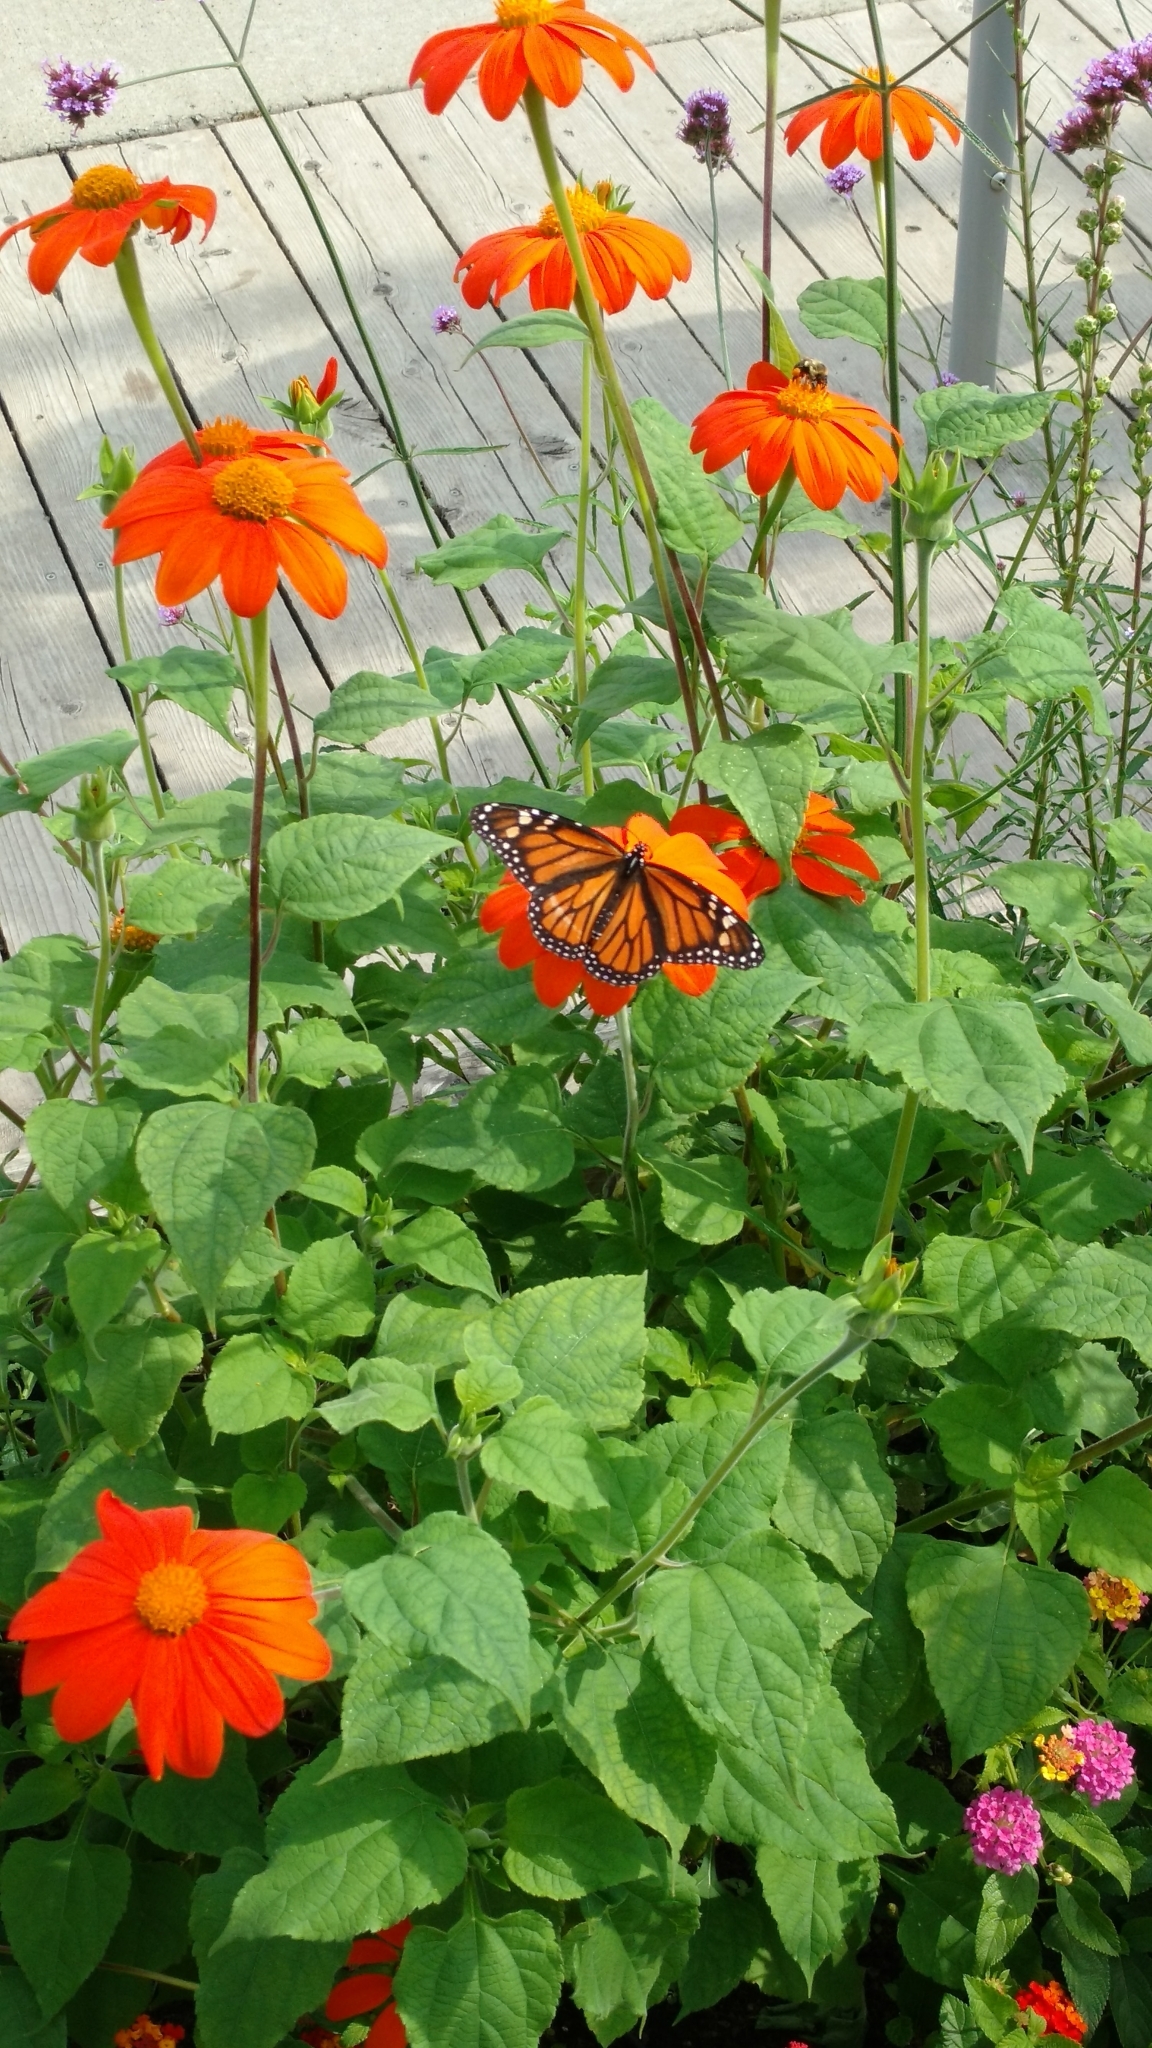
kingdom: Animalia
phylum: Arthropoda
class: Insecta
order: Lepidoptera
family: Nymphalidae
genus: Danaus
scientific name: Danaus plexippus
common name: Monarch
